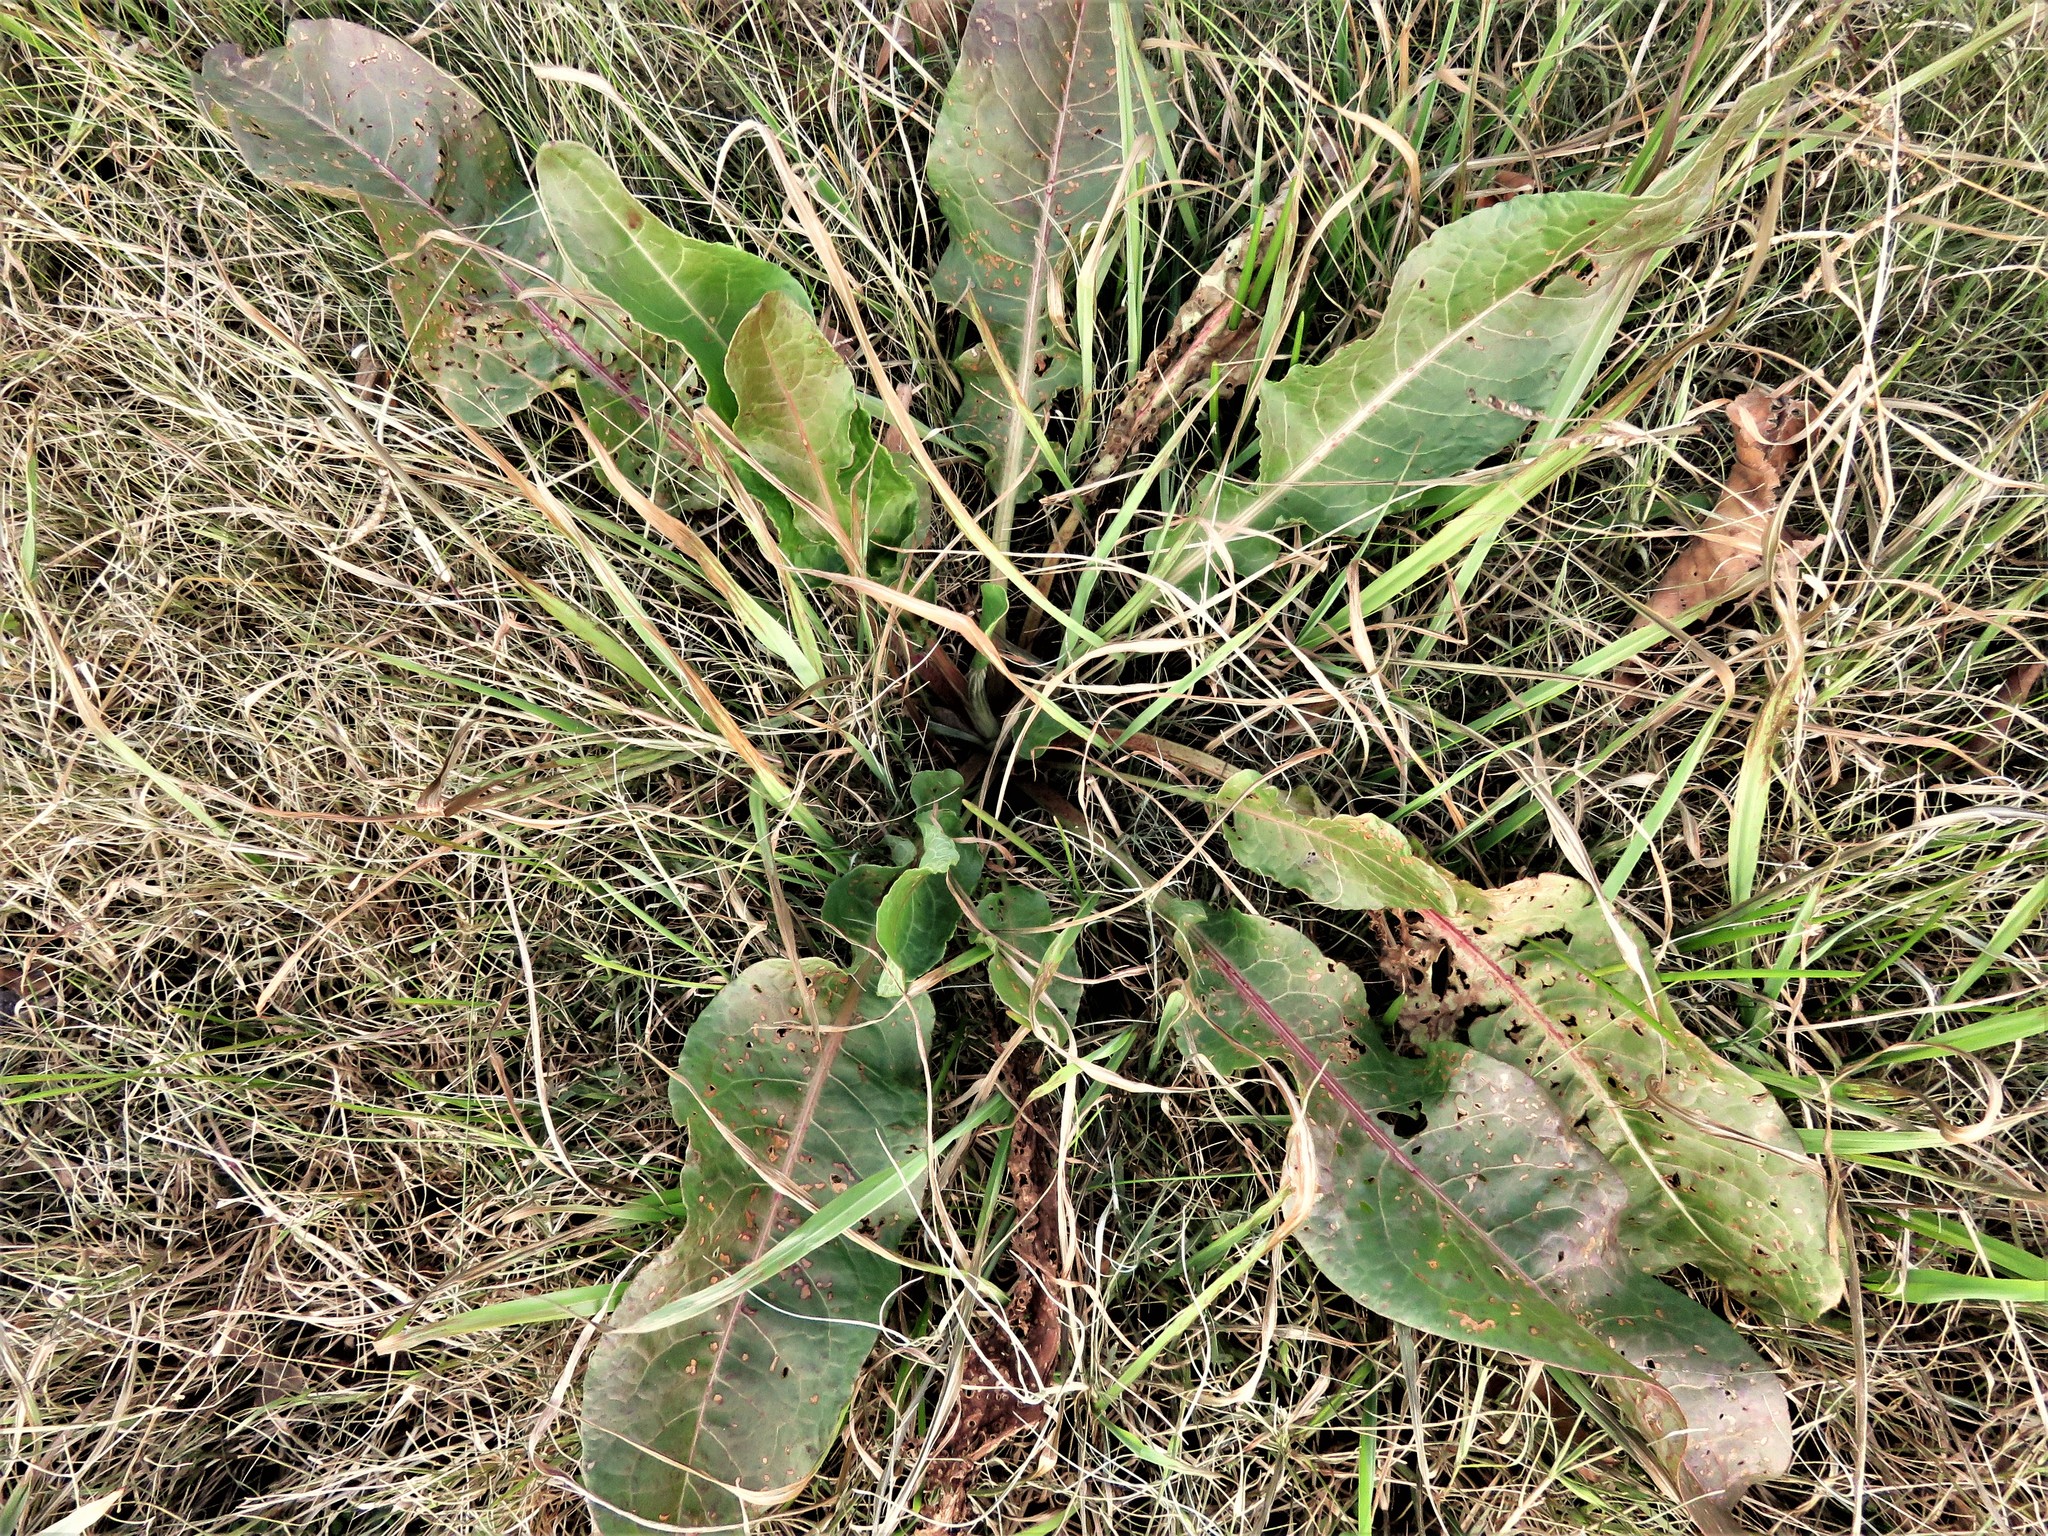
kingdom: Plantae
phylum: Tracheophyta
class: Magnoliopsida
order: Caryophyllales
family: Polygonaceae
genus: Rumex
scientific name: Rumex crispus
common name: Curled dock
